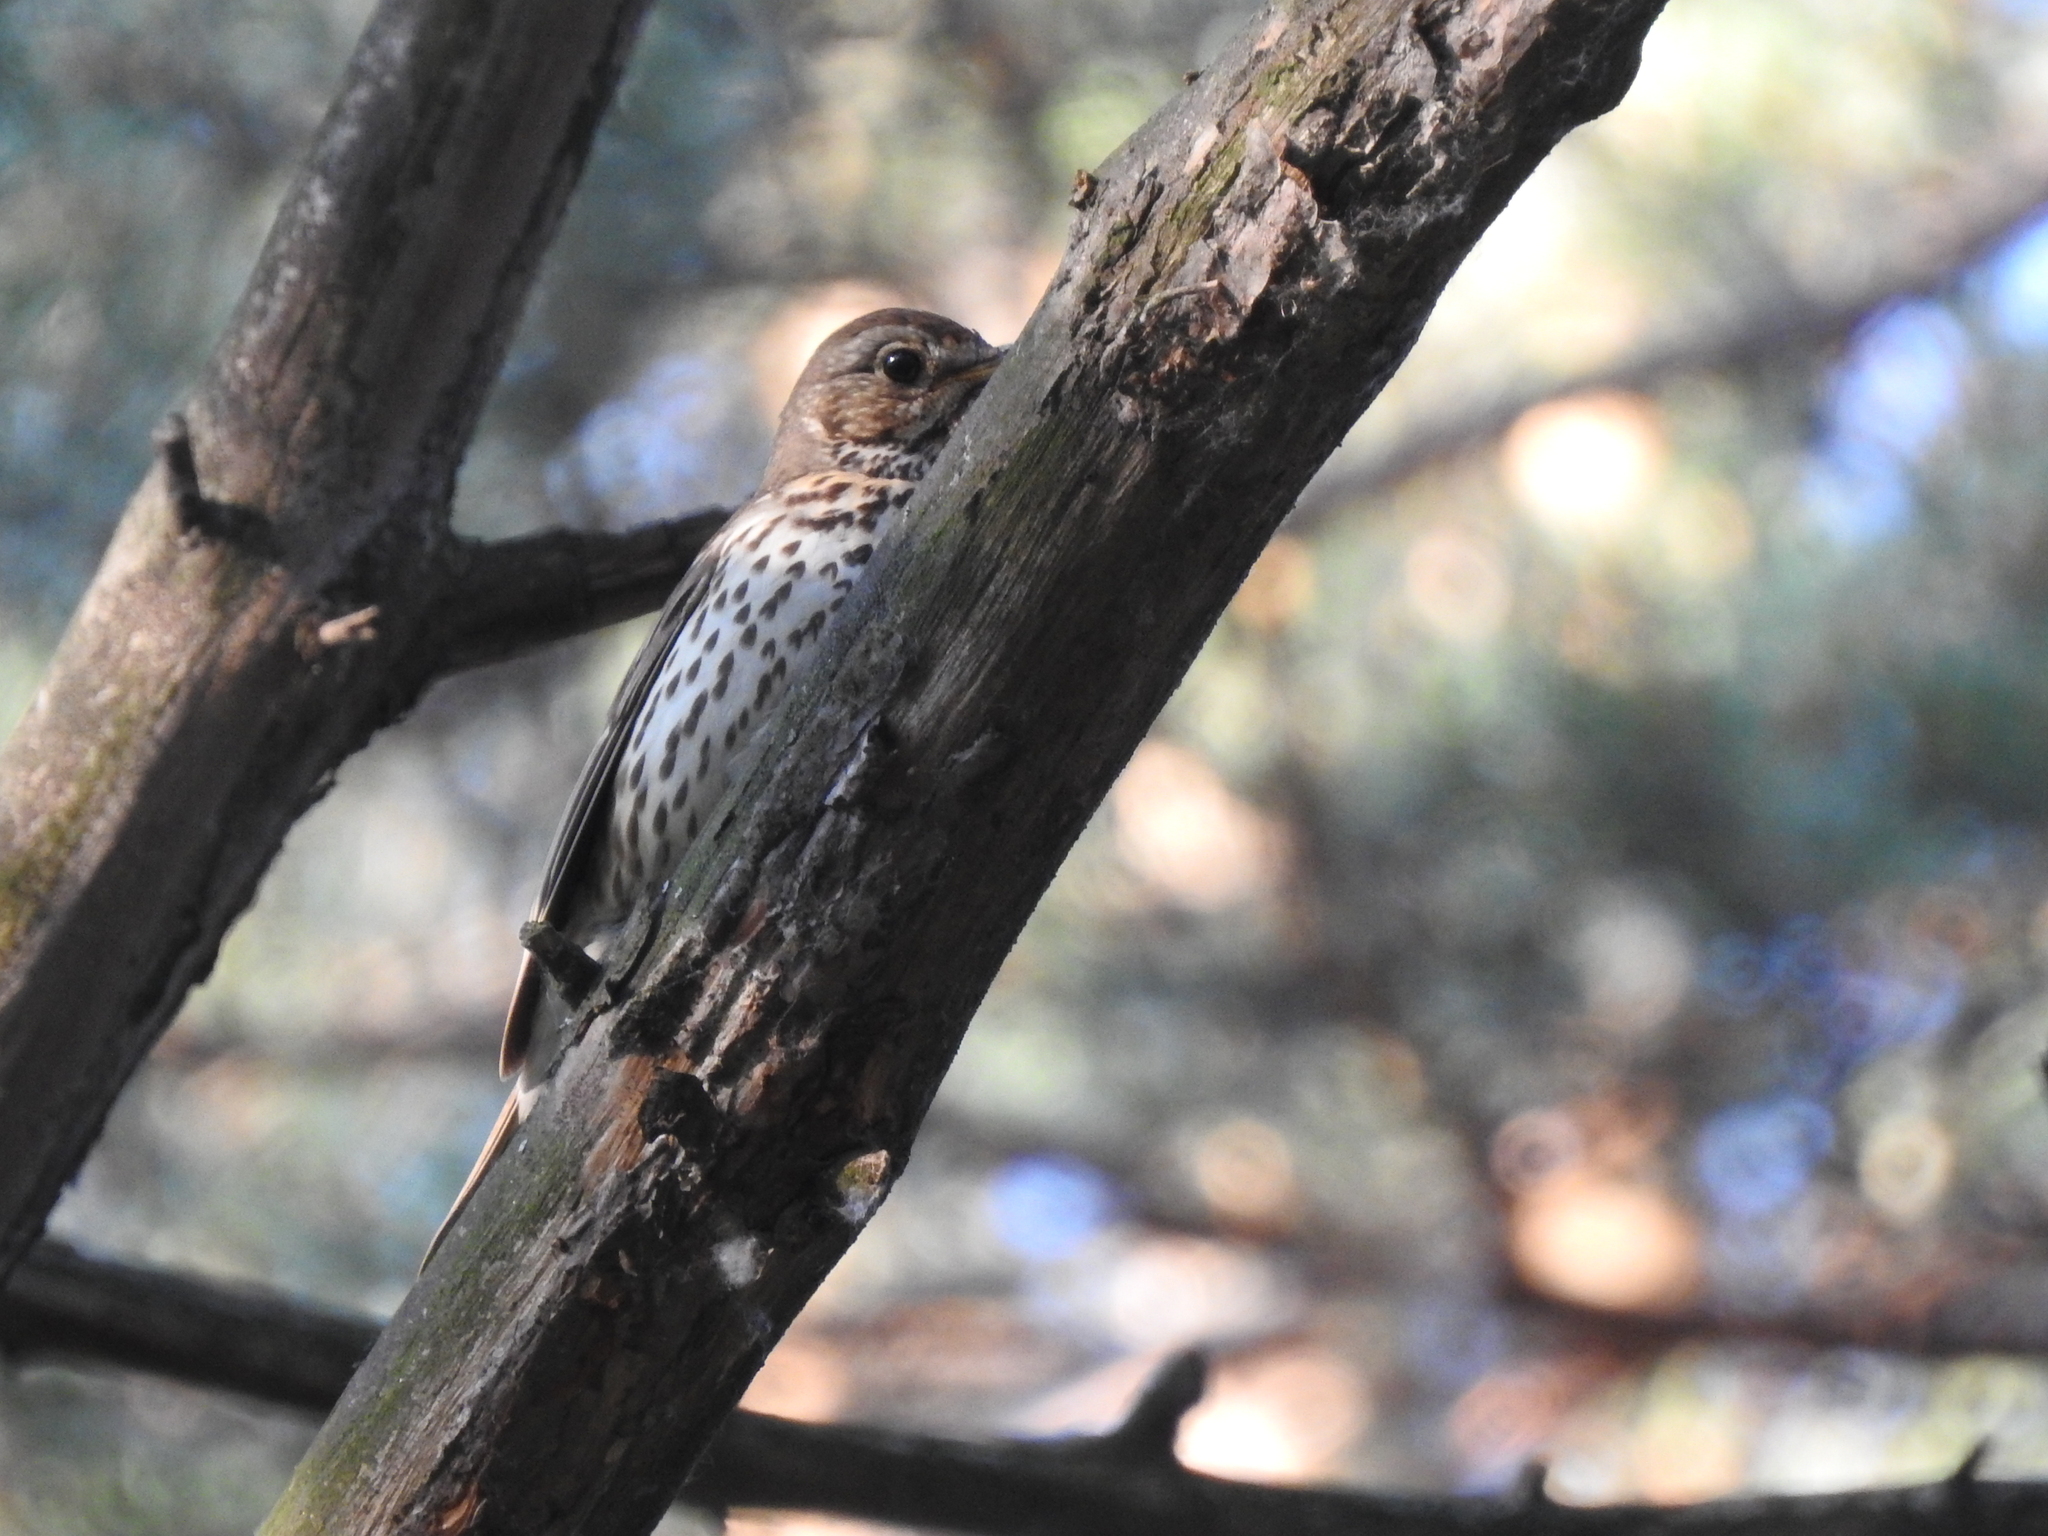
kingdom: Animalia
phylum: Chordata
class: Aves
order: Passeriformes
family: Turdidae
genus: Turdus
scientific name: Turdus philomelos
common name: Song thrush
